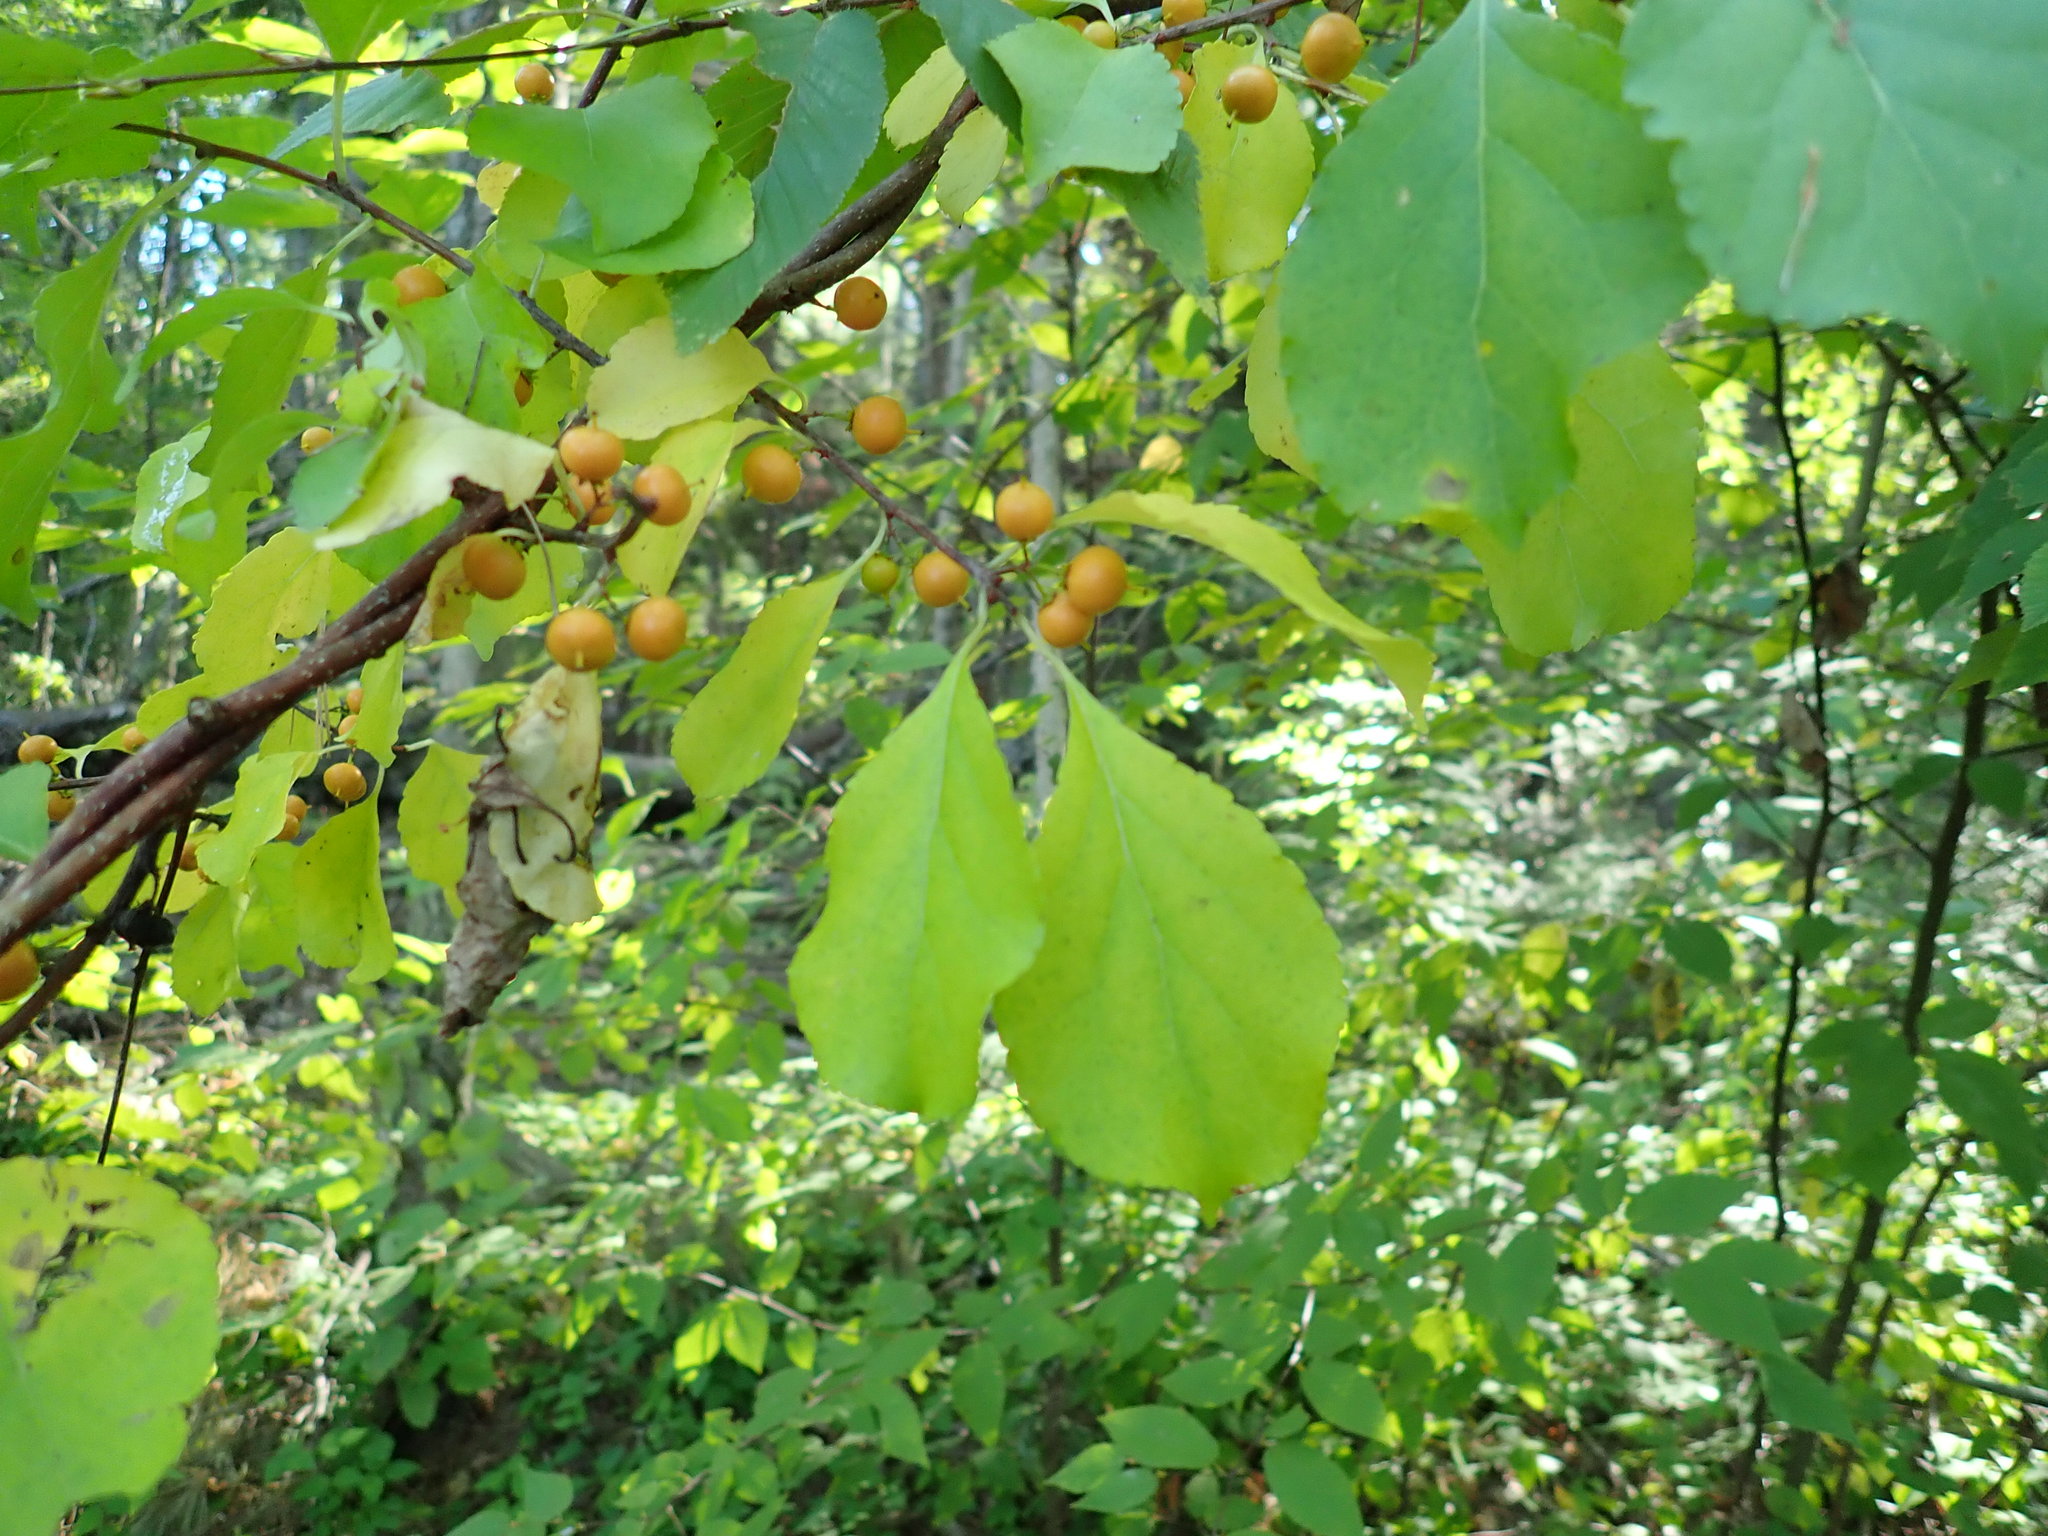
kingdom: Plantae
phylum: Tracheophyta
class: Magnoliopsida
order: Celastrales
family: Celastraceae
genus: Celastrus
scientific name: Celastrus orbiculatus
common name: Oriental bittersweet
